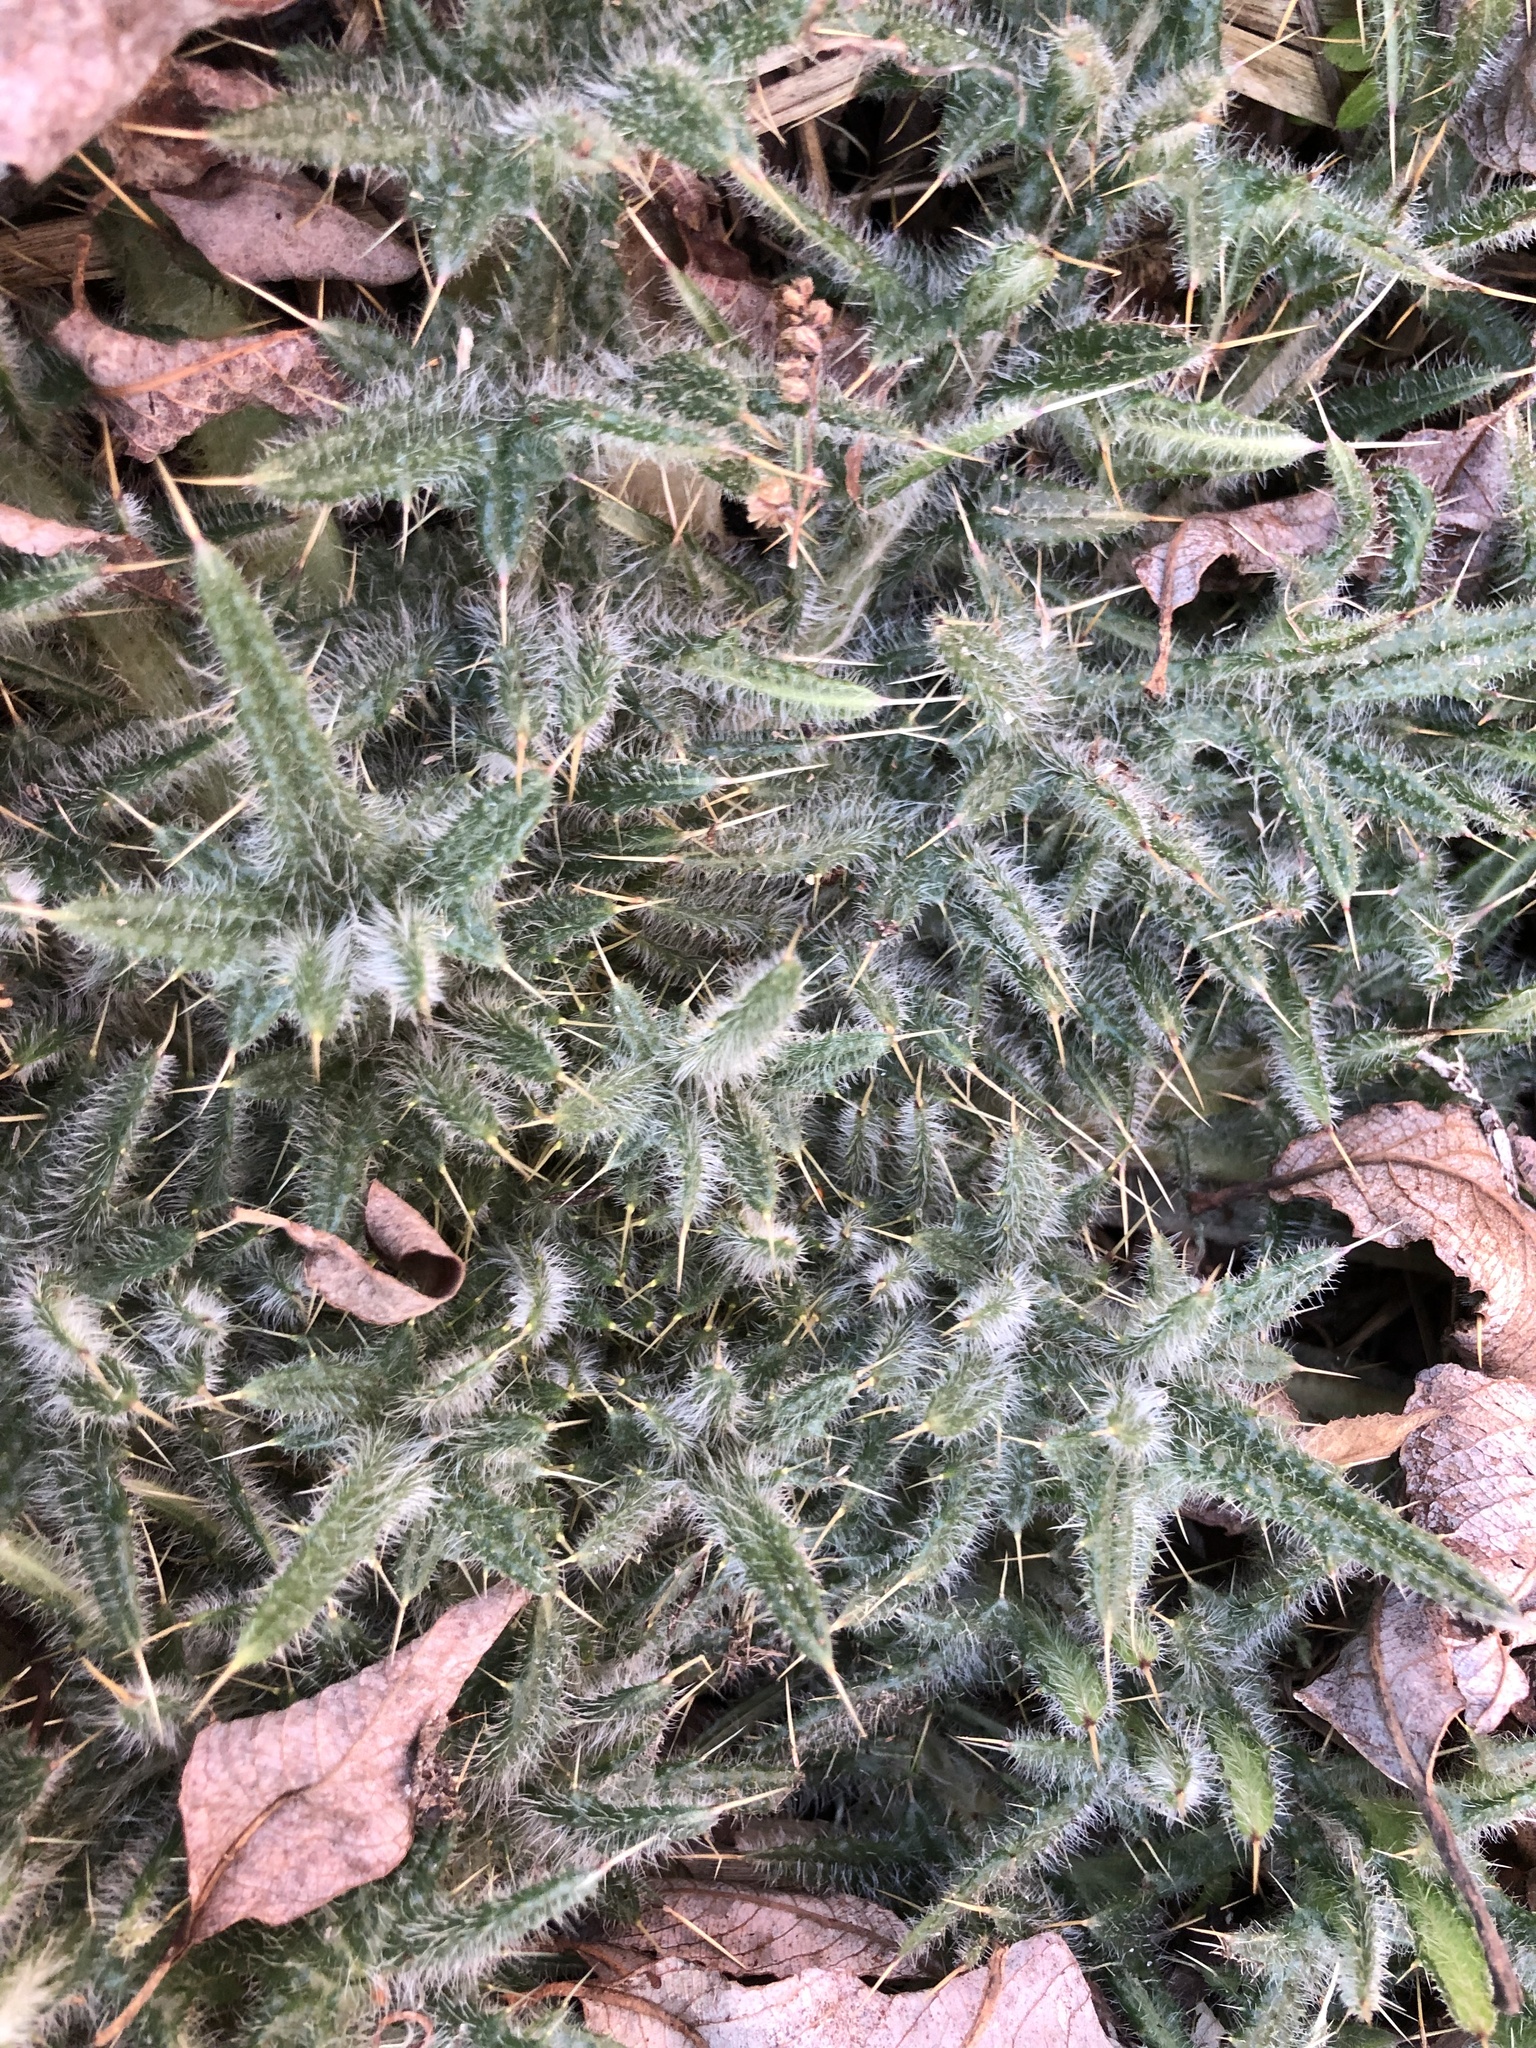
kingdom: Plantae
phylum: Tracheophyta
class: Magnoliopsida
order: Asterales
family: Asteraceae
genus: Cirsium
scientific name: Cirsium vulgare
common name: Bull thistle
